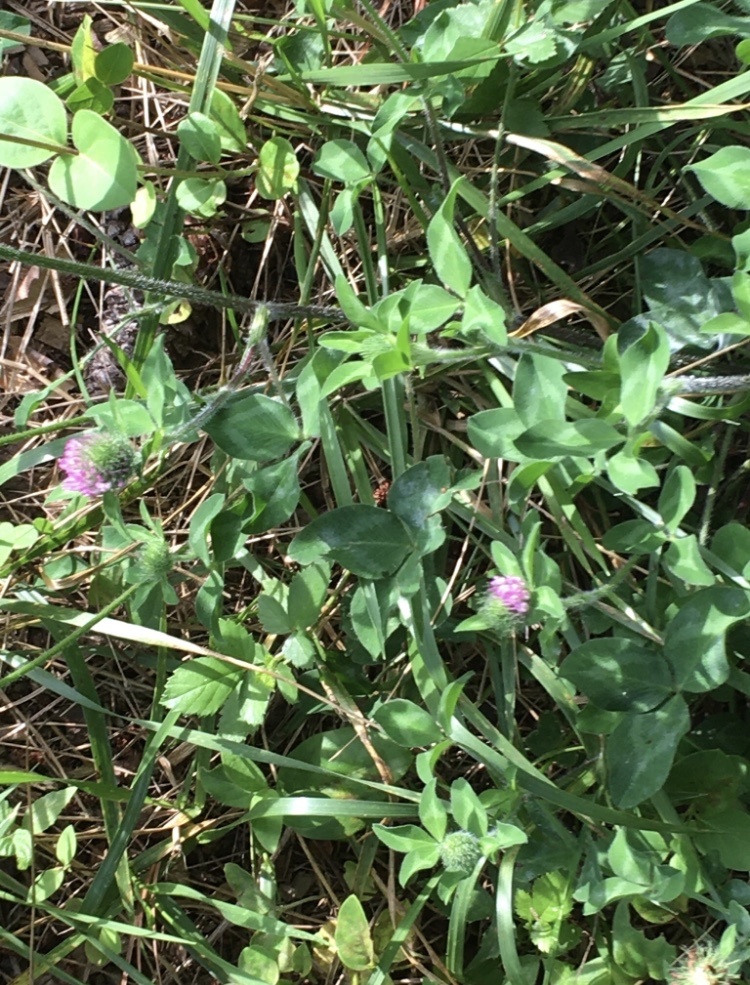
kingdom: Plantae
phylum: Tracheophyta
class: Magnoliopsida
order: Fabales
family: Fabaceae
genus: Trifolium
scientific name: Trifolium pratense
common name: Red clover
